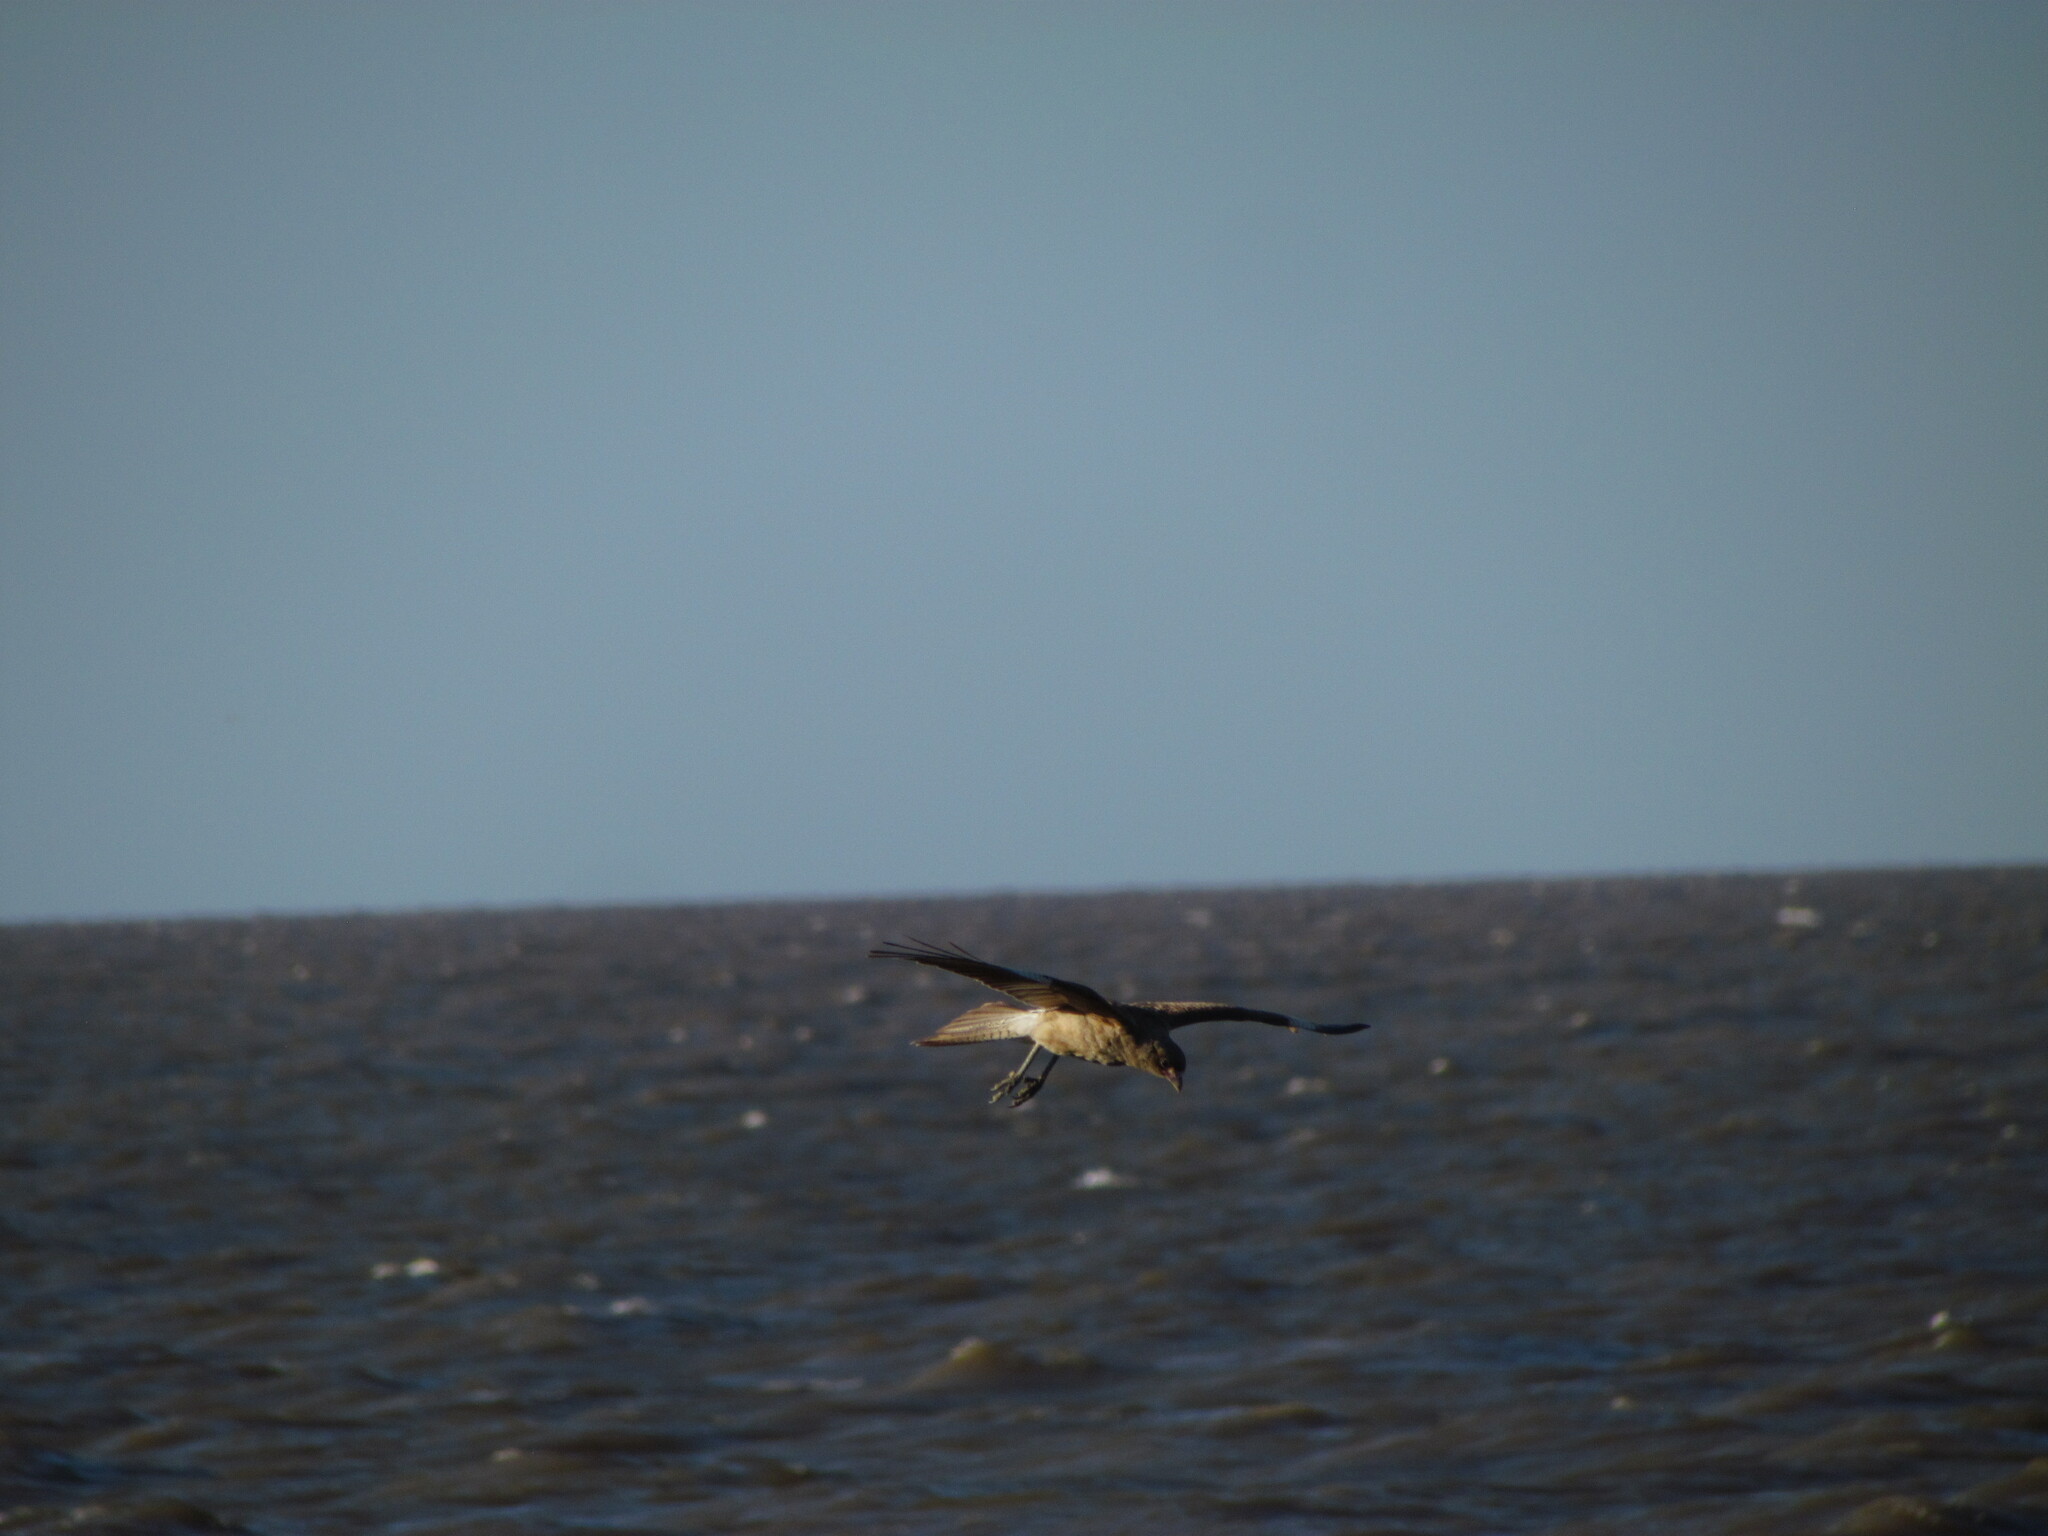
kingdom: Animalia
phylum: Chordata
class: Aves
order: Falconiformes
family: Falconidae
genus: Daptrius
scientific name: Daptrius
